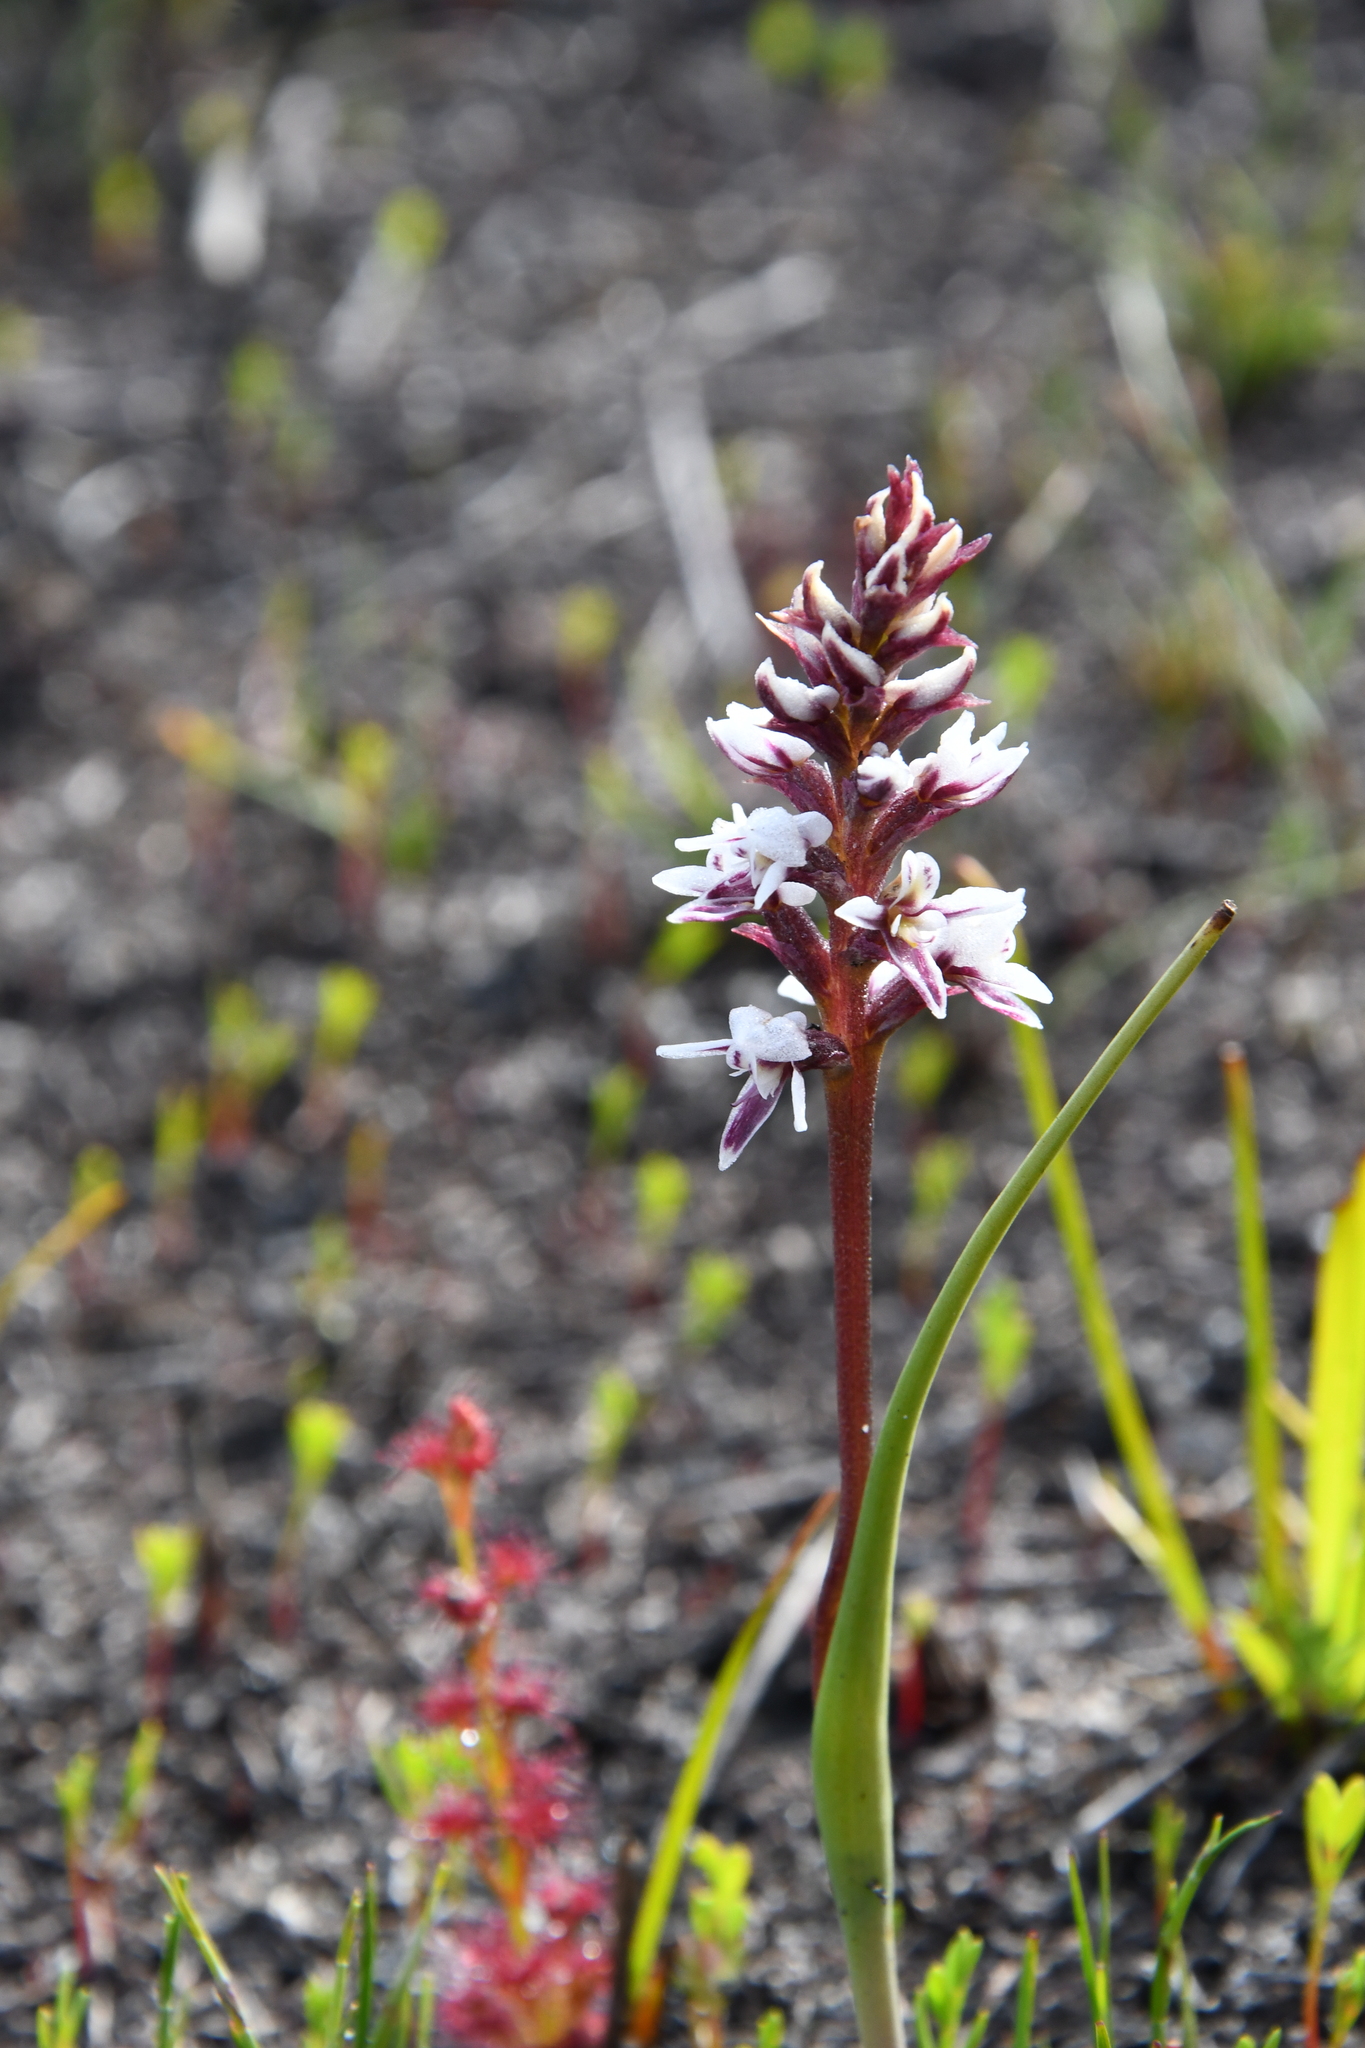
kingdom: Plantae
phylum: Tracheophyta
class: Liliopsida
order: Asparagales
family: Orchidaceae
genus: Prasophyllum
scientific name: Prasophyllum cucullatum
